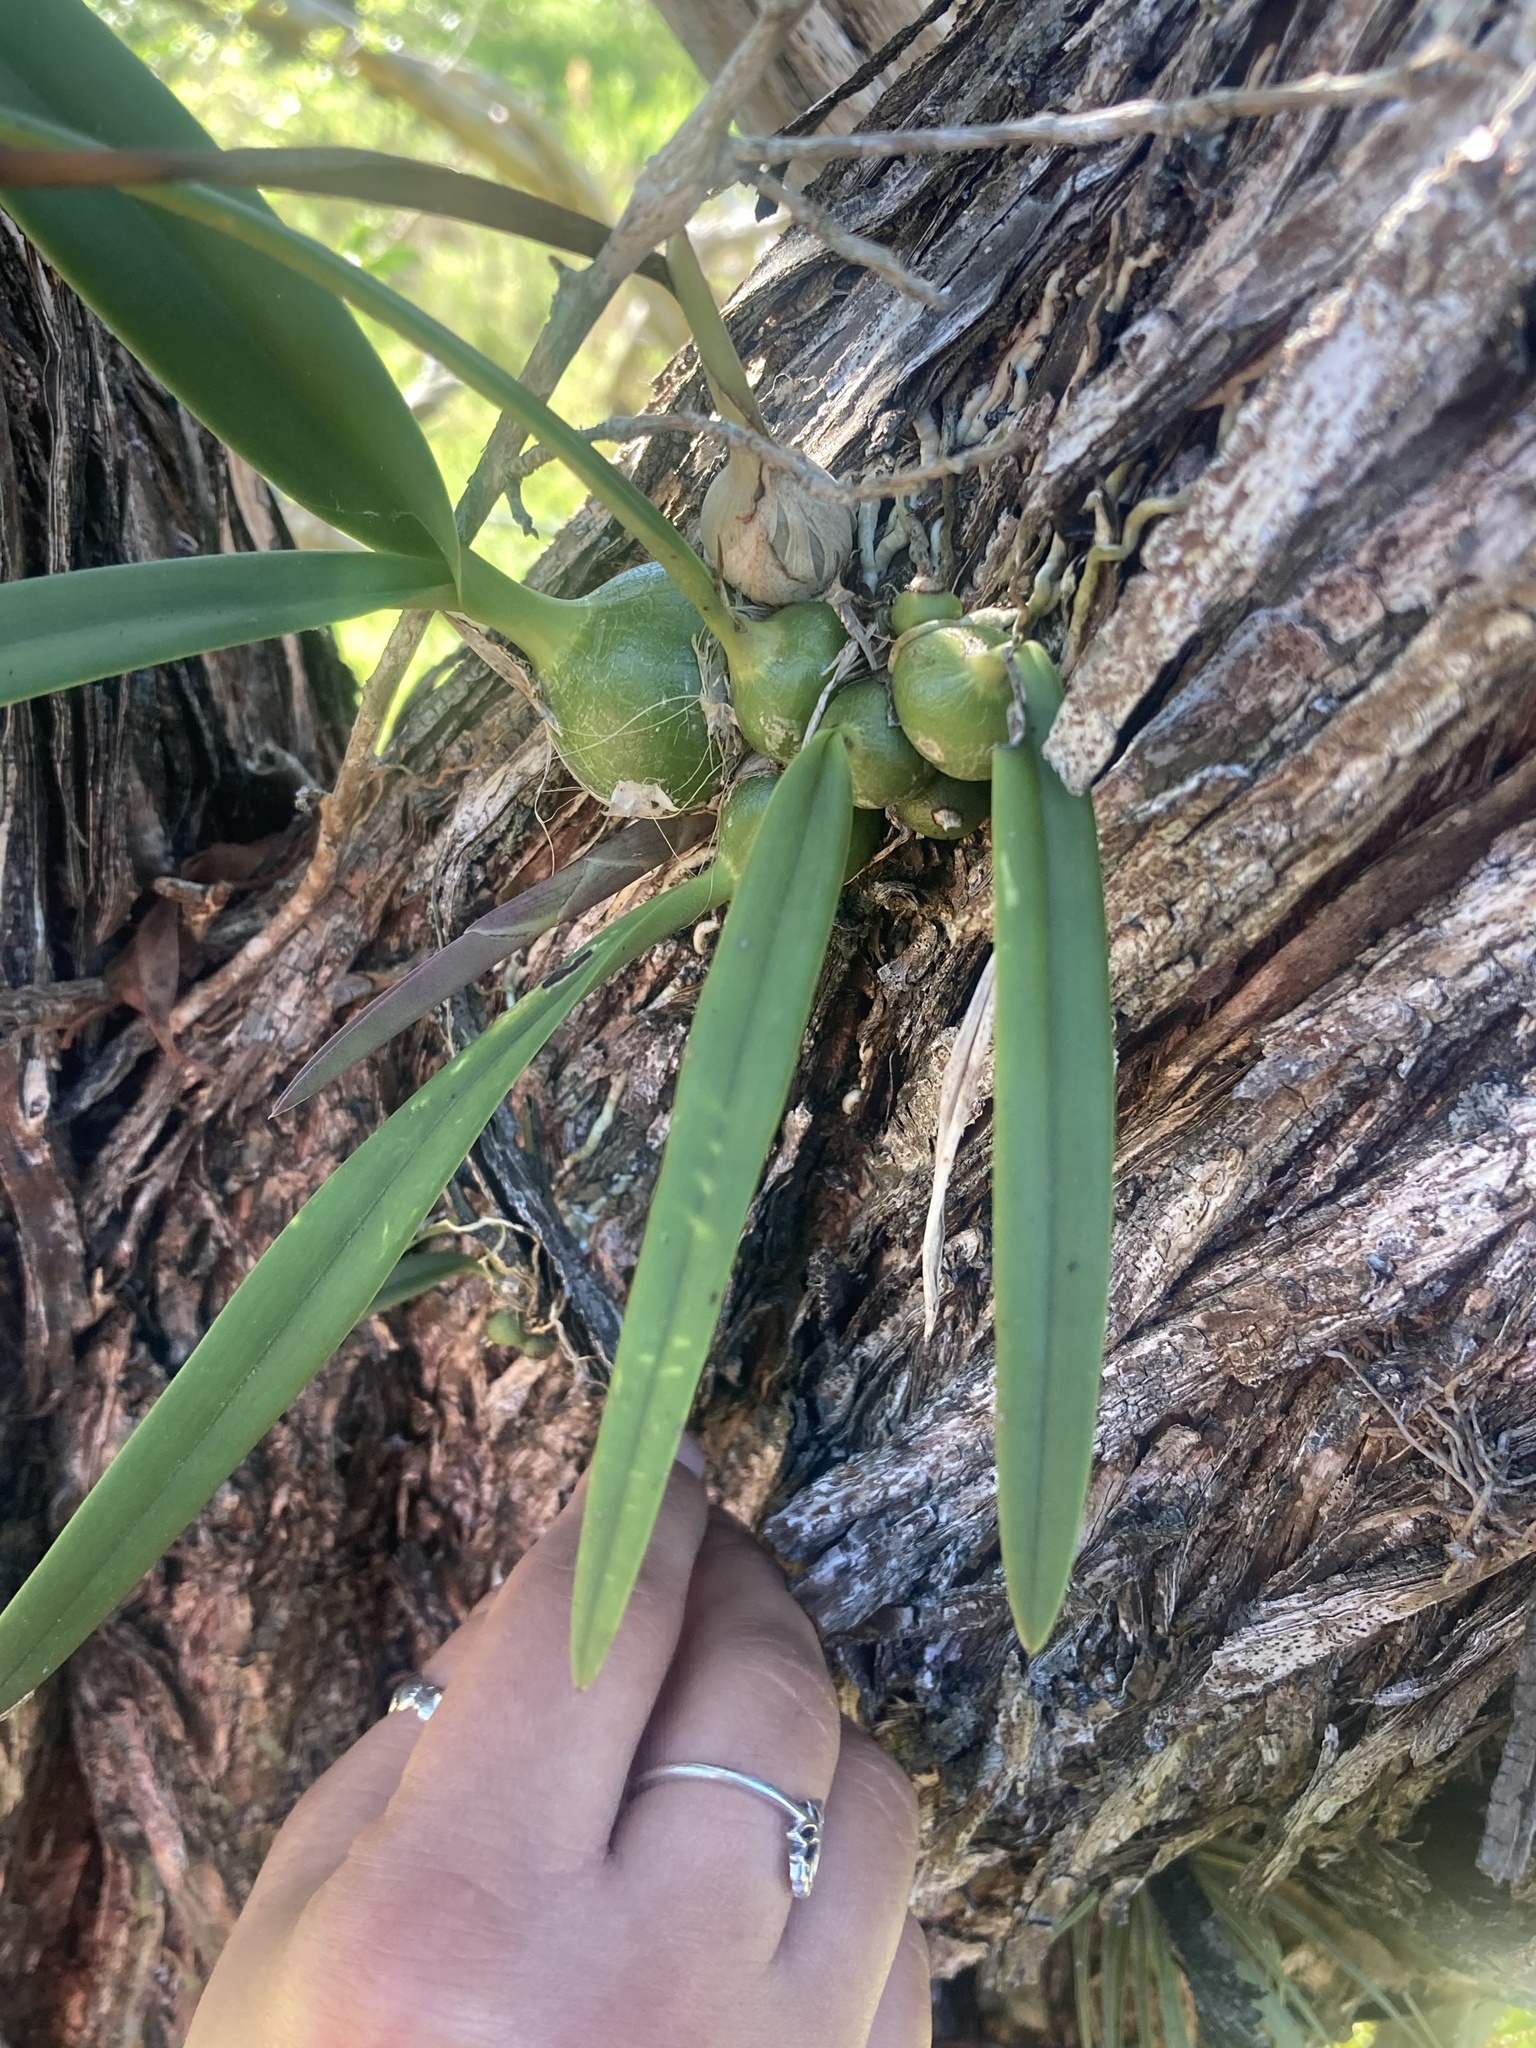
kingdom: Plantae
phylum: Tracheophyta
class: Liliopsida
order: Asparagales
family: Orchidaceae
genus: Encyclia
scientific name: Encyclia tampensis
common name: Florida butterfly orchid
